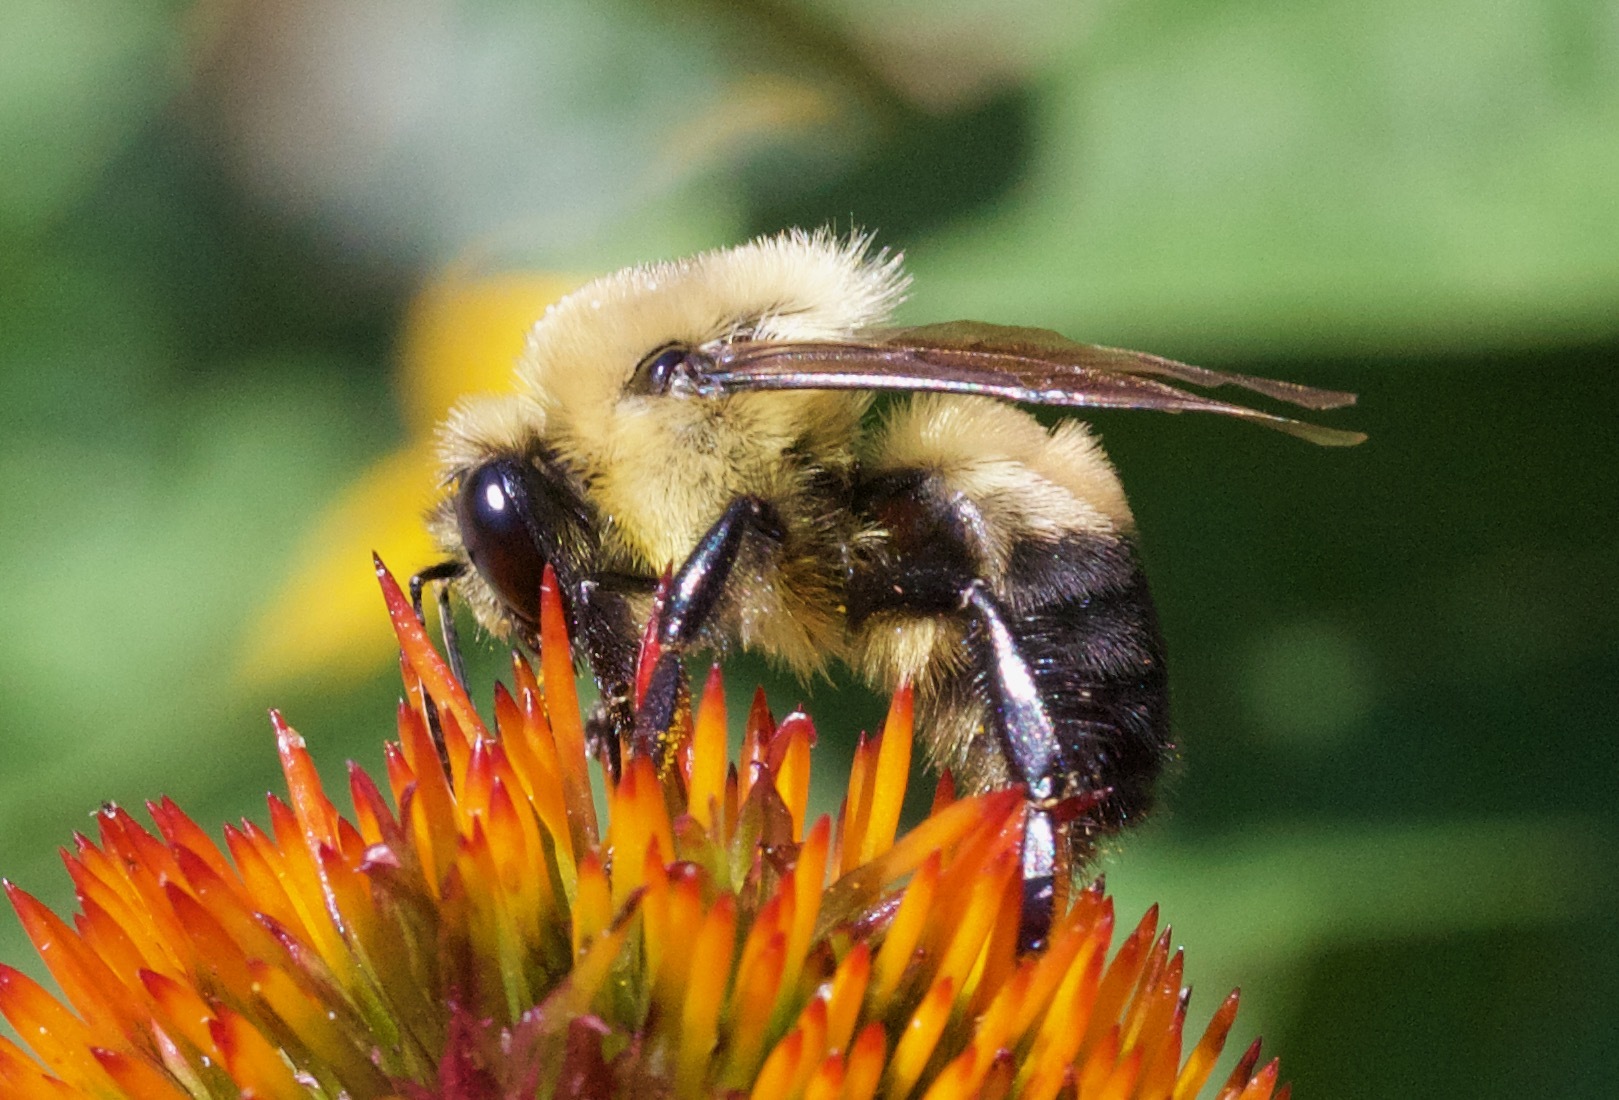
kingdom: Animalia
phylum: Arthropoda
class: Insecta
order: Hymenoptera
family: Apidae
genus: Bombus
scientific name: Bombus griseocollis
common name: Brown-belted bumble bee
